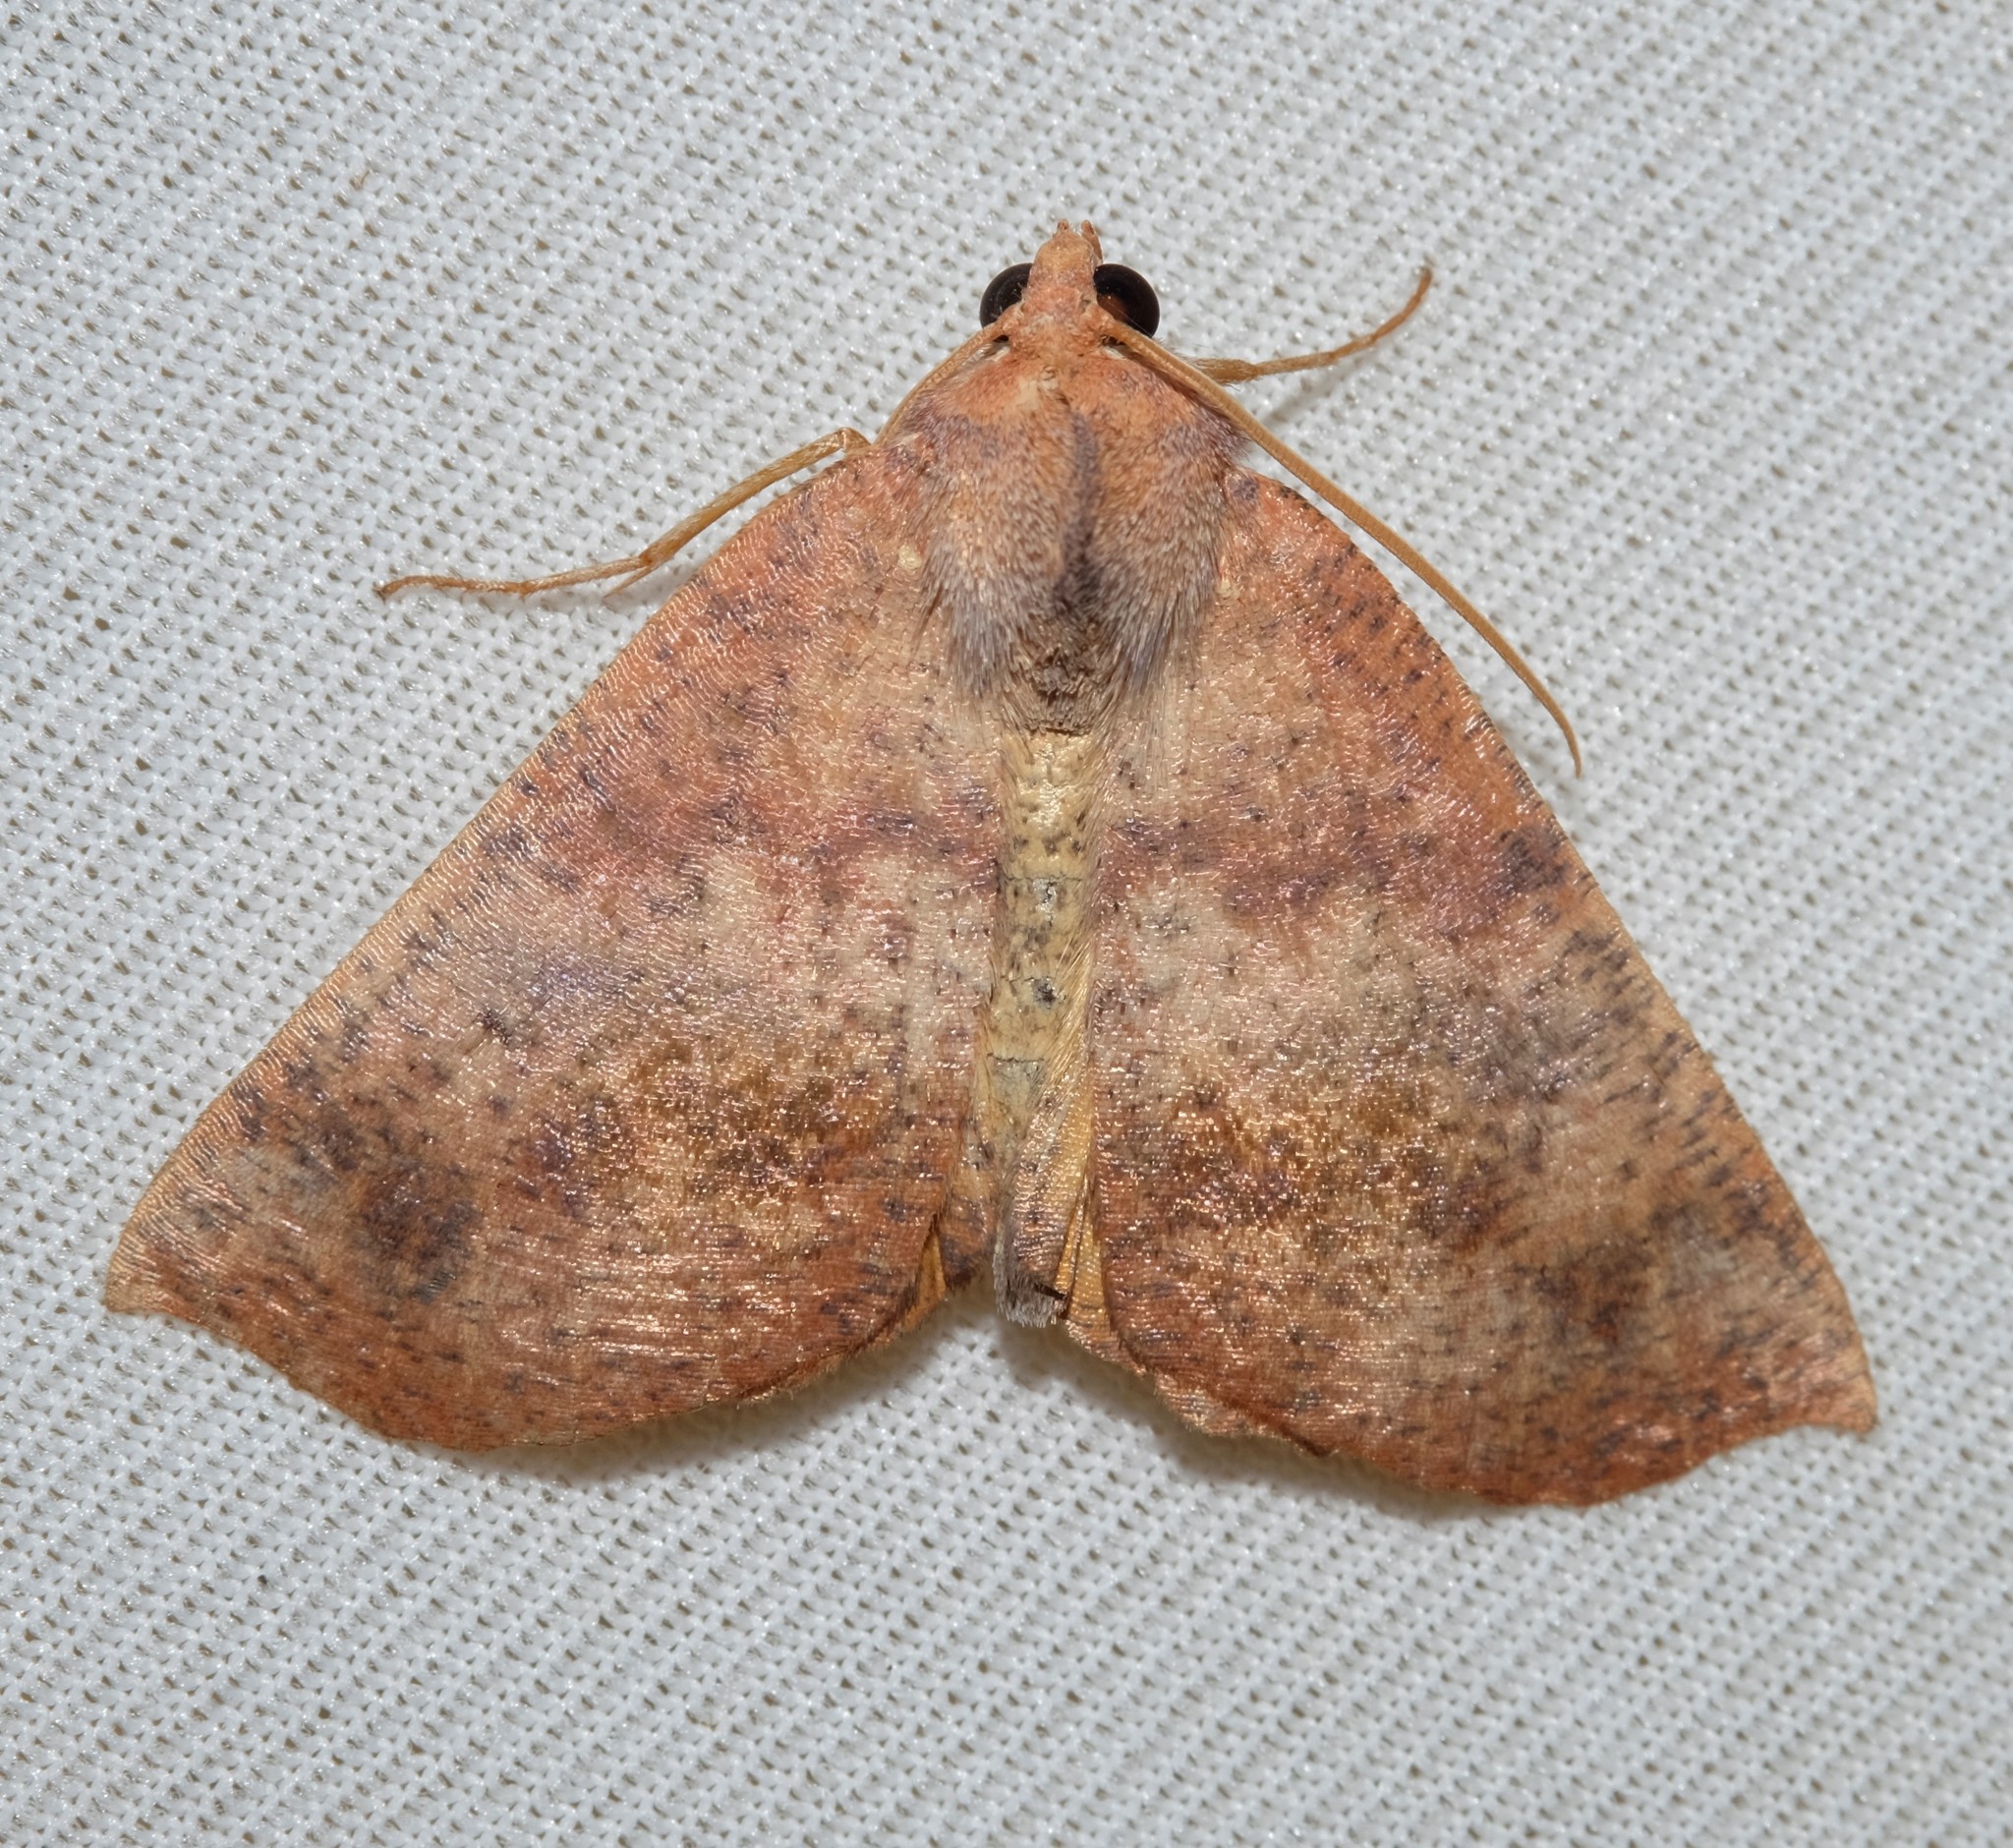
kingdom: Animalia
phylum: Arthropoda
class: Insecta
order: Lepidoptera
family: Geometridae
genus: Mnesampela
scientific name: Mnesampela privata
